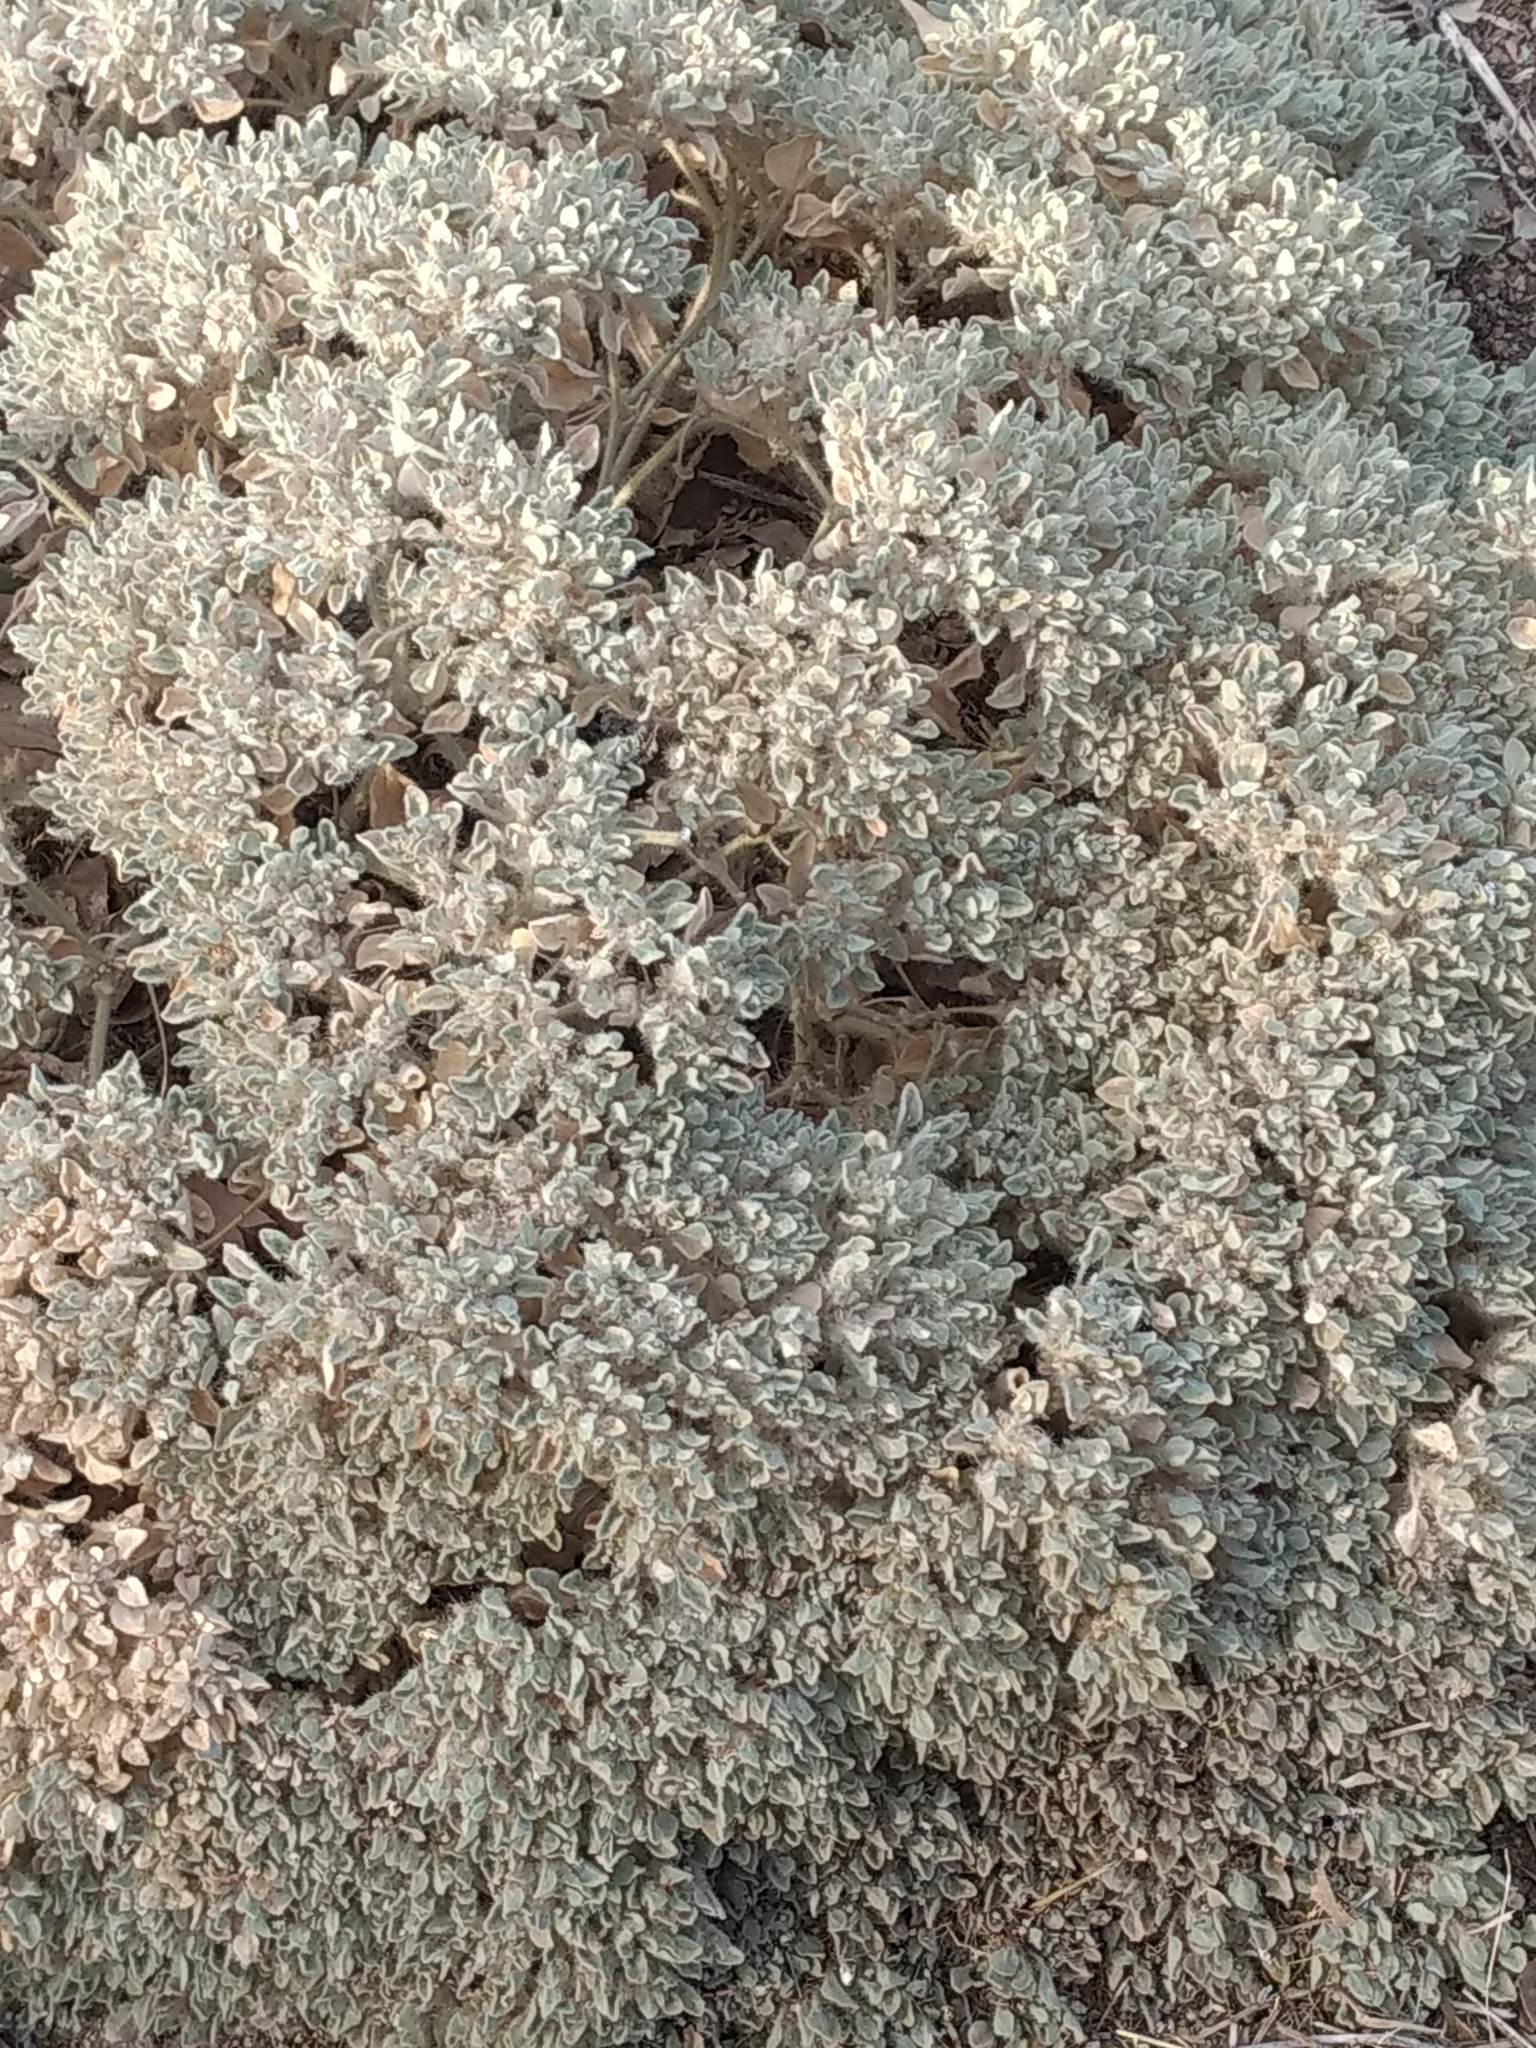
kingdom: Plantae
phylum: Tracheophyta
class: Magnoliopsida
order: Malpighiales
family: Euphorbiaceae
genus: Croton
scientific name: Croton setiger
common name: Dove weed
